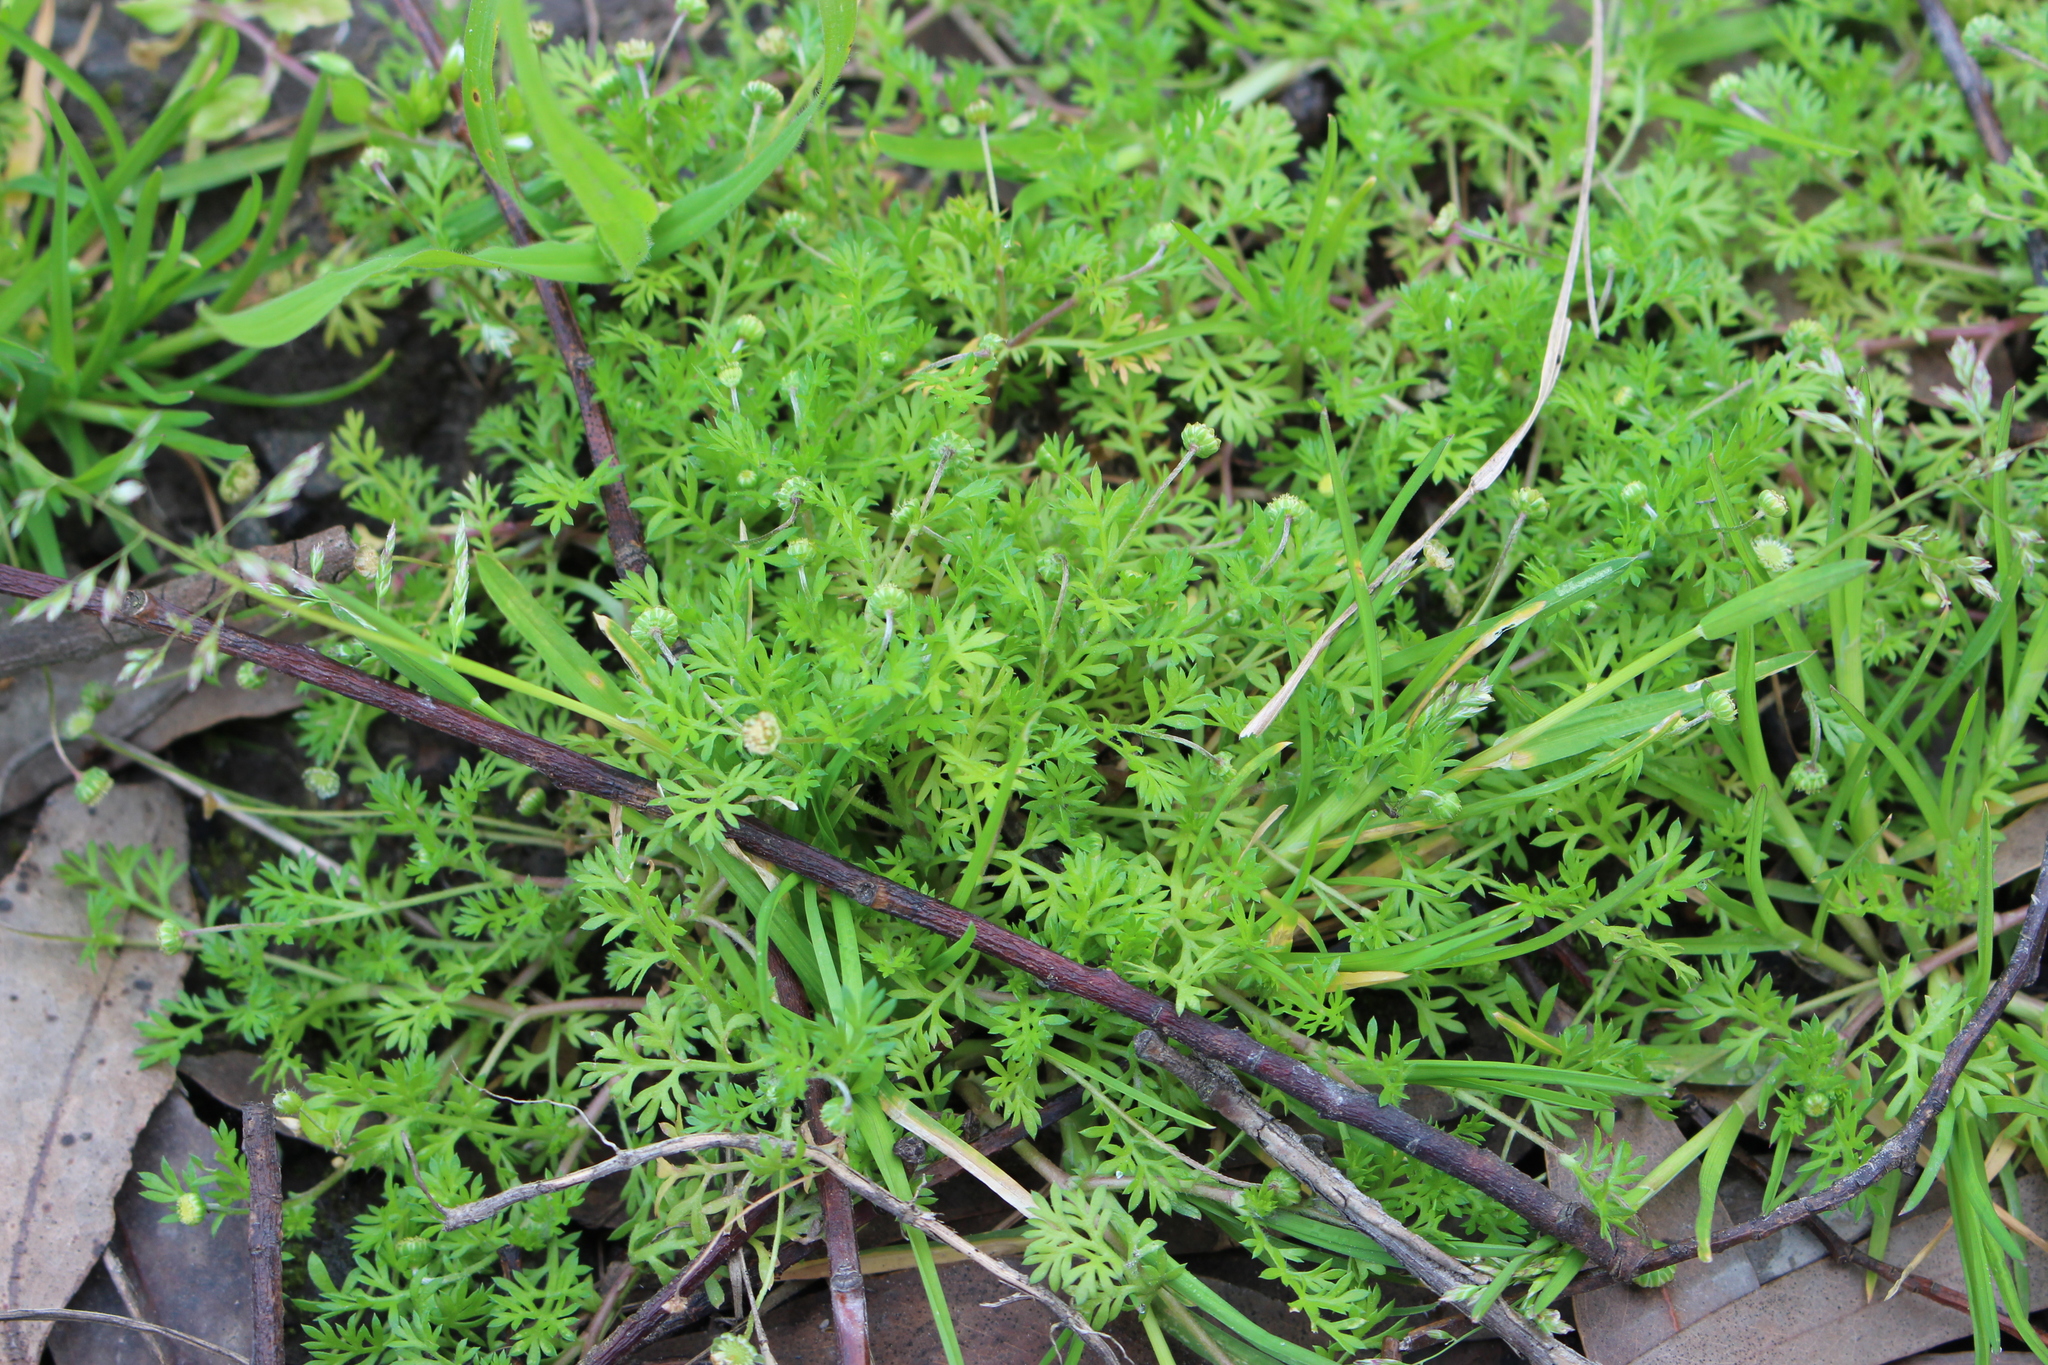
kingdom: Plantae
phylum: Tracheophyta
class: Magnoliopsida
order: Asterales
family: Asteraceae
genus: Cotula
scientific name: Cotula australis
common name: Australian waterbuttons
